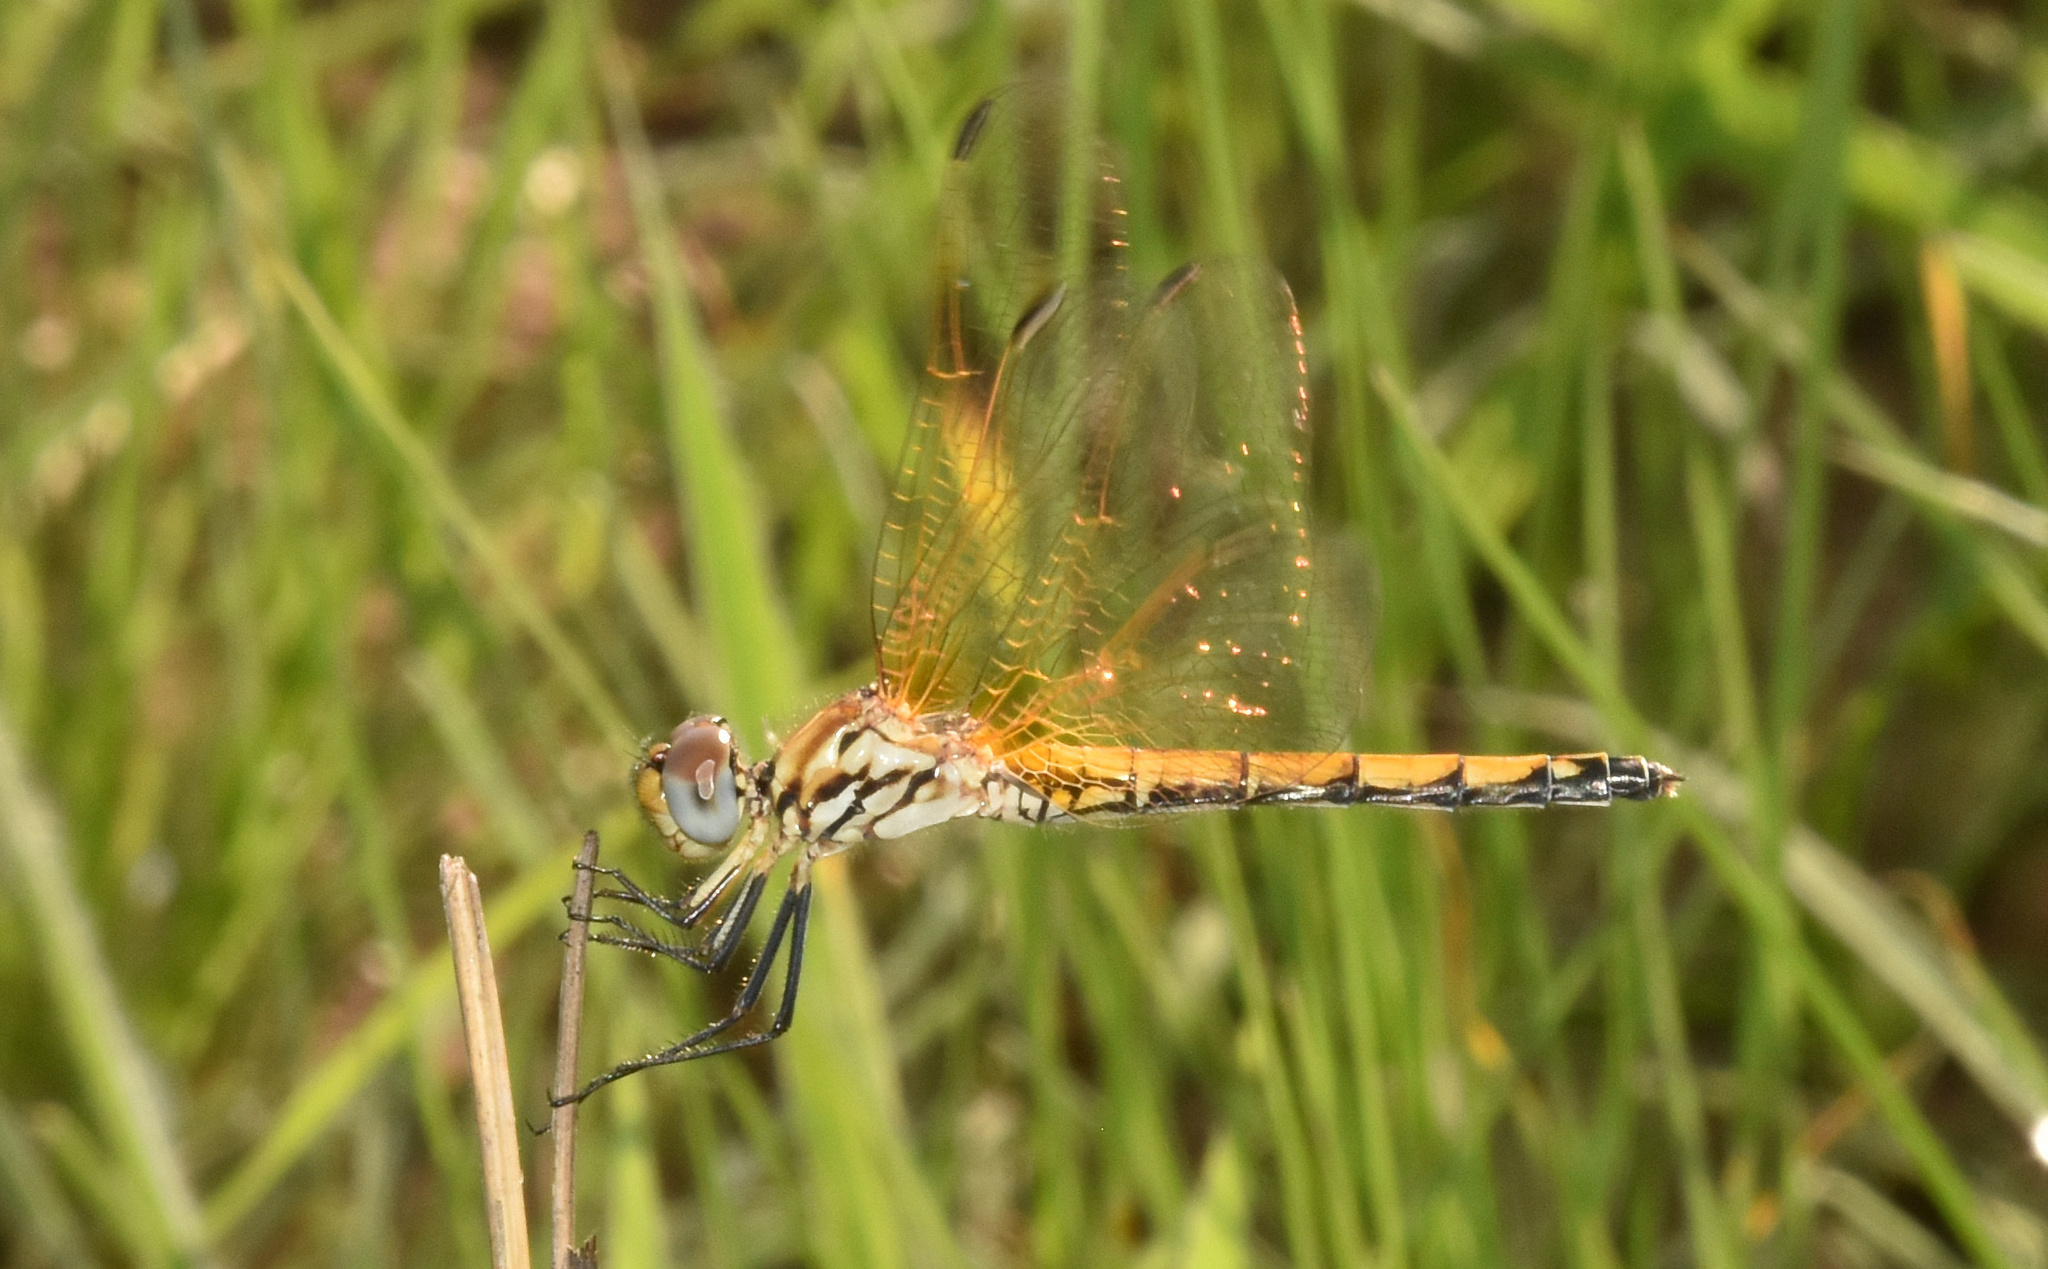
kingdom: Animalia
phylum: Arthropoda
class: Insecta
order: Odonata
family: Libellulidae
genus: Trithemis
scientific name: Trithemis arteriosa
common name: Red-veined dropwing
